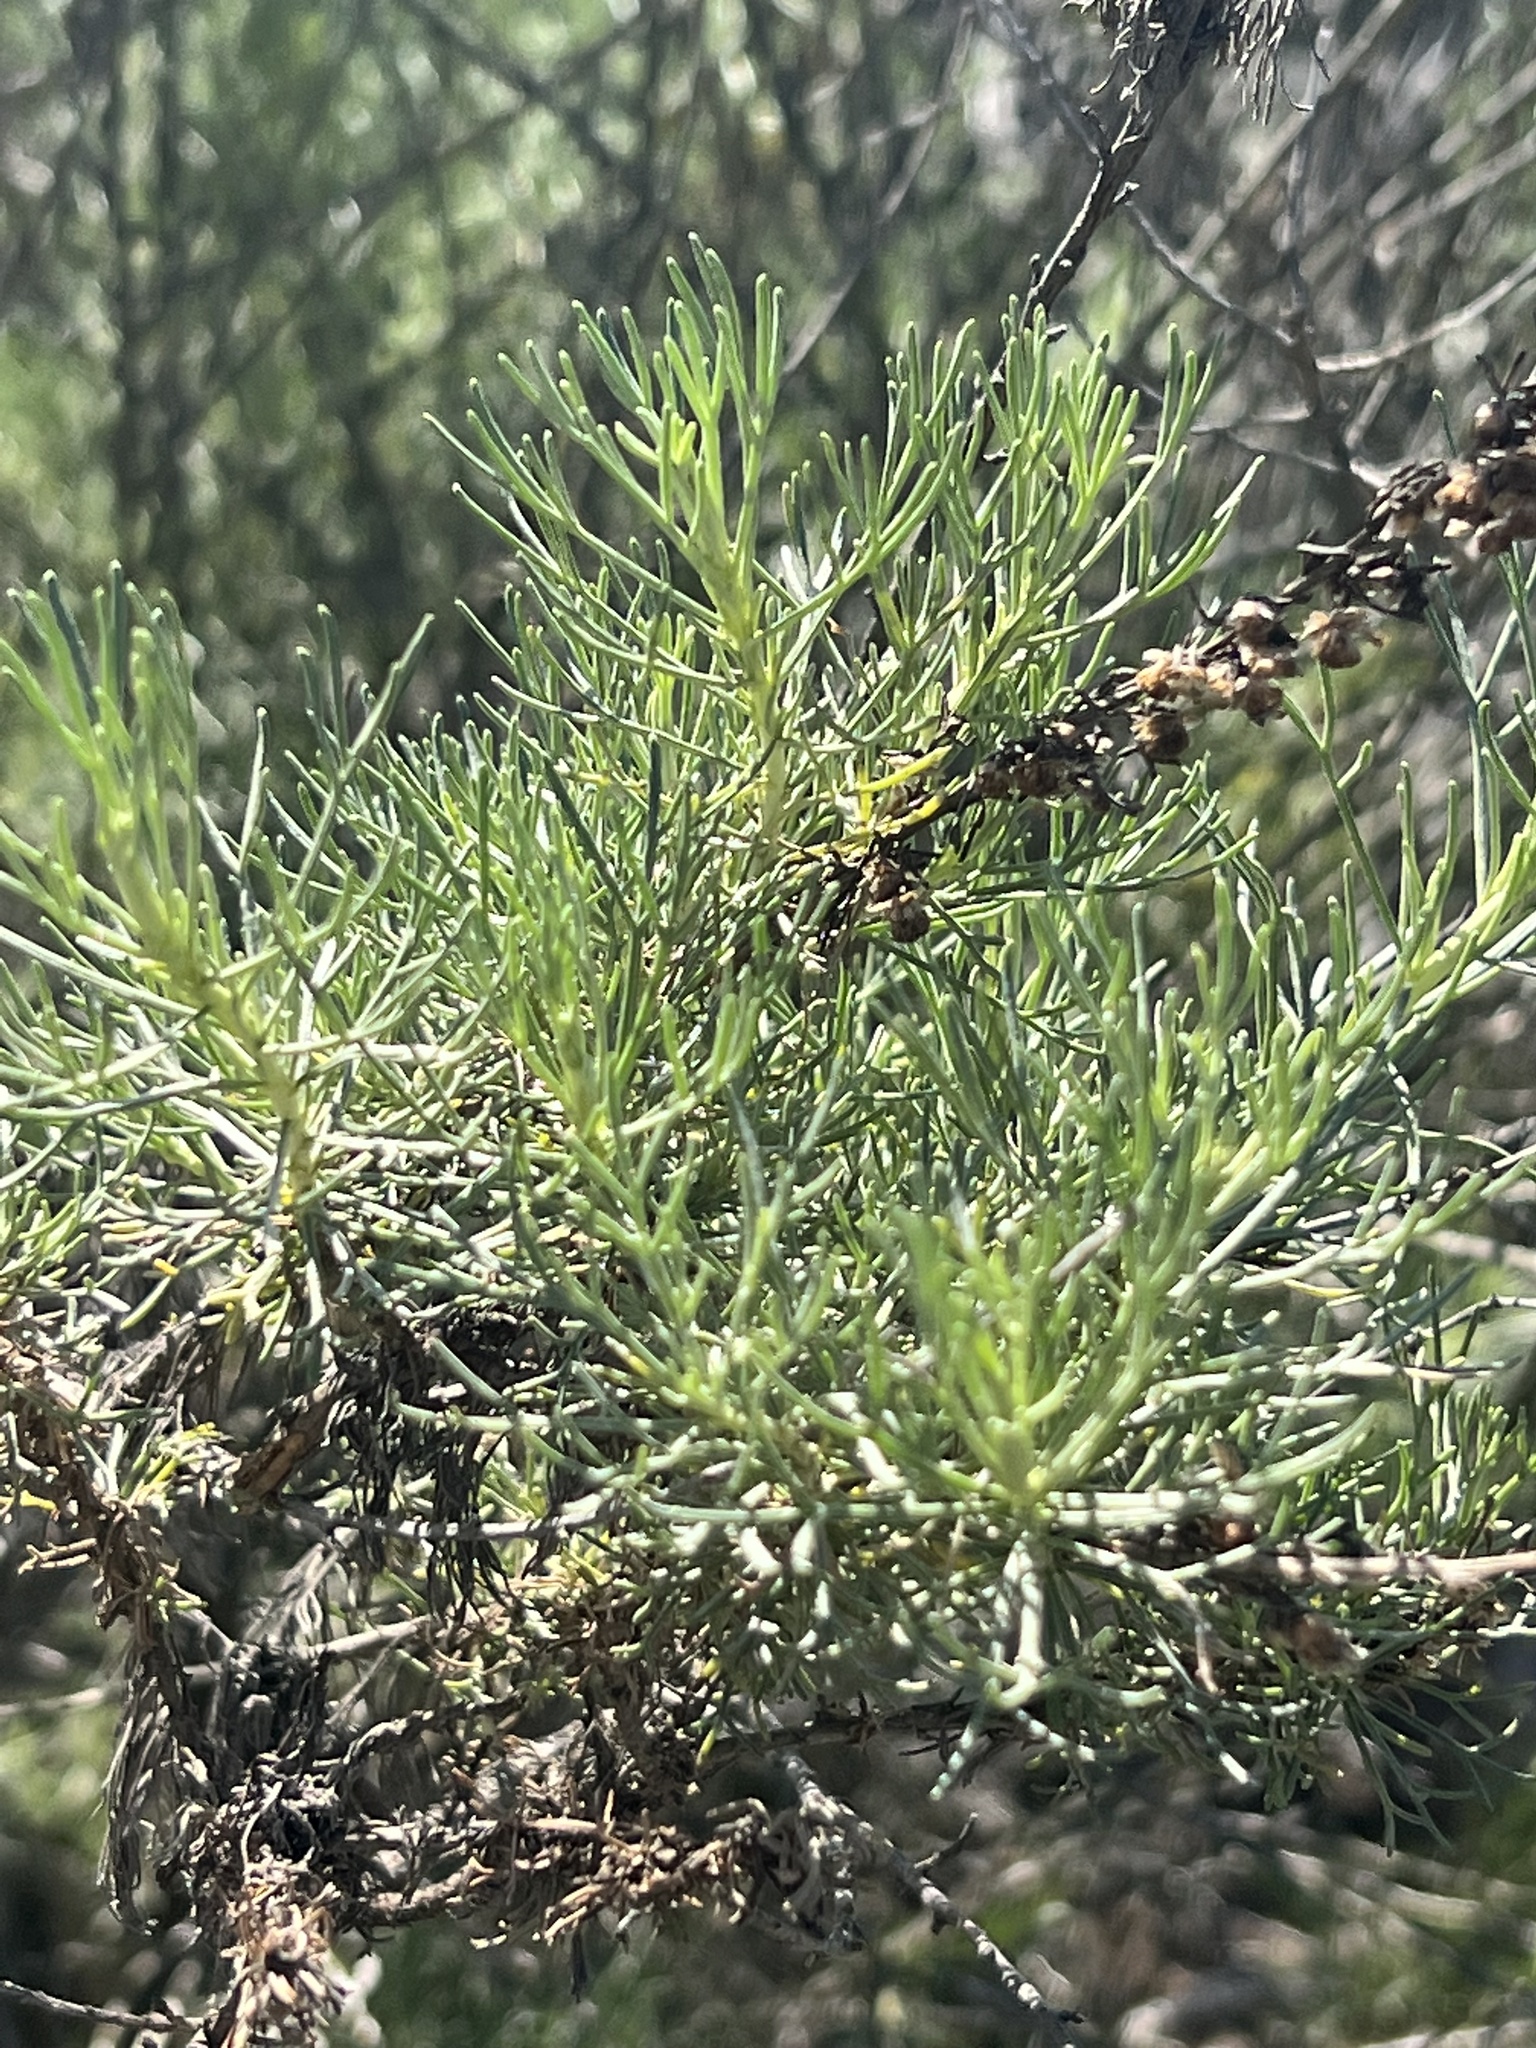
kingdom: Plantae
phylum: Tracheophyta
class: Magnoliopsida
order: Asterales
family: Asteraceae
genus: Artemisia
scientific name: Artemisia californica
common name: California sagebrush
